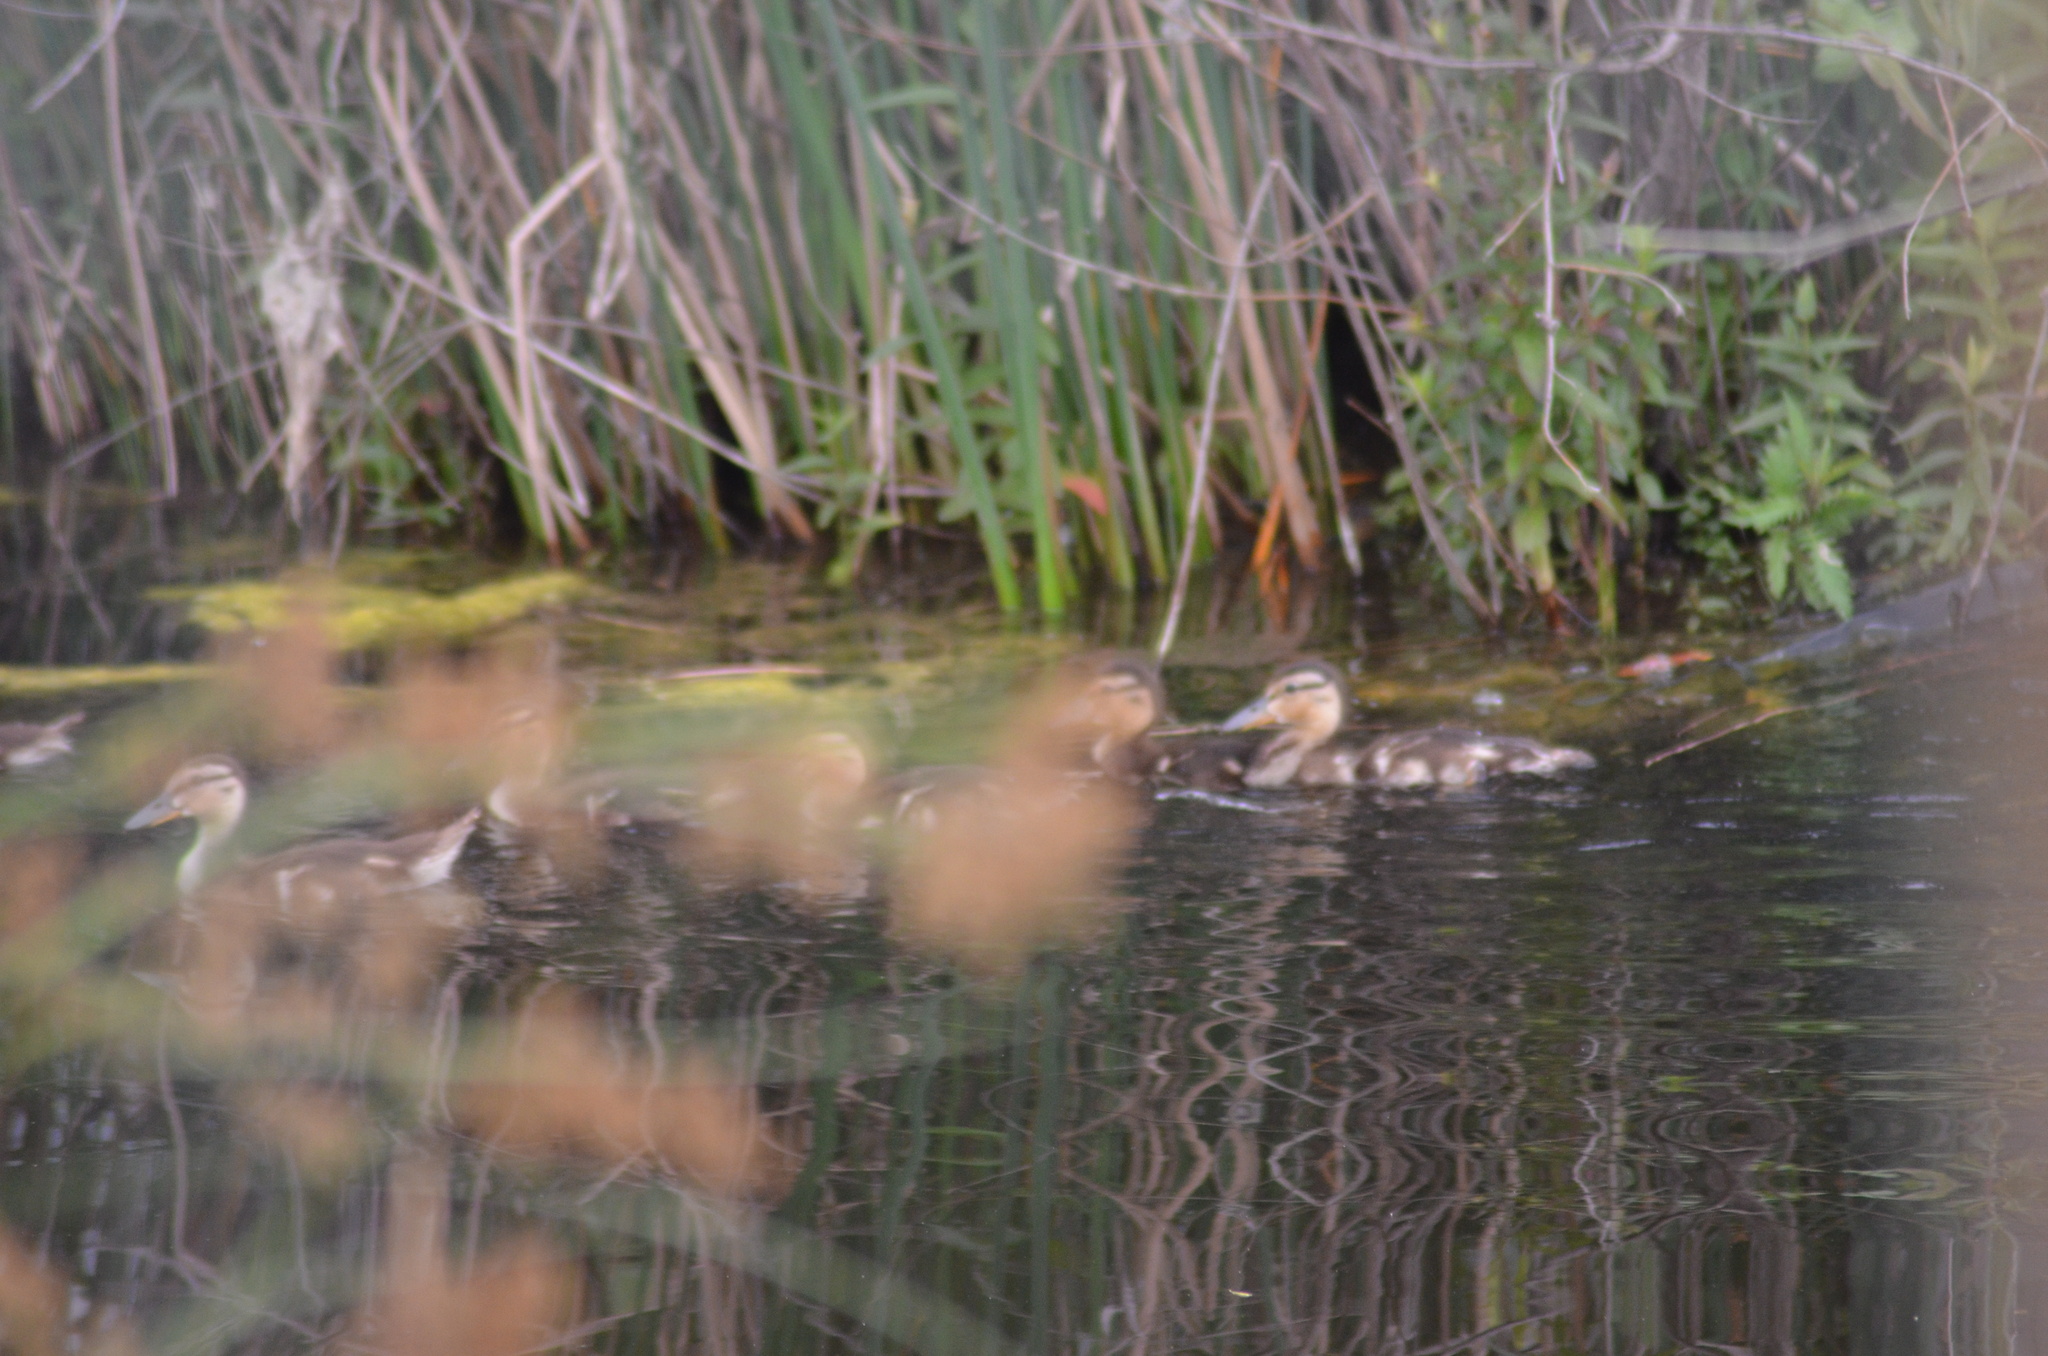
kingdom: Animalia
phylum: Chordata
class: Aves
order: Anseriformes
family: Anatidae
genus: Anas
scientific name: Anas platyrhynchos
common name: Mallard
